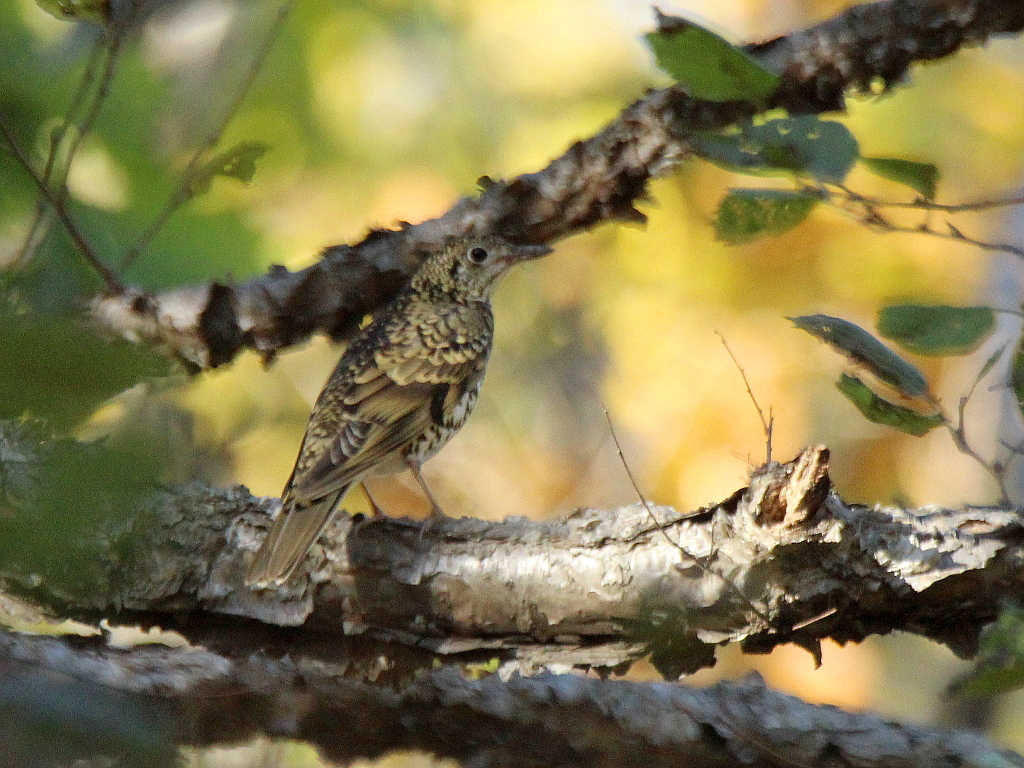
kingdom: Animalia
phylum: Chordata
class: Aves
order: Passeriformes
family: Turdidae
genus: Zoothera
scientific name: Zoothera aurea
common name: White's thrush
